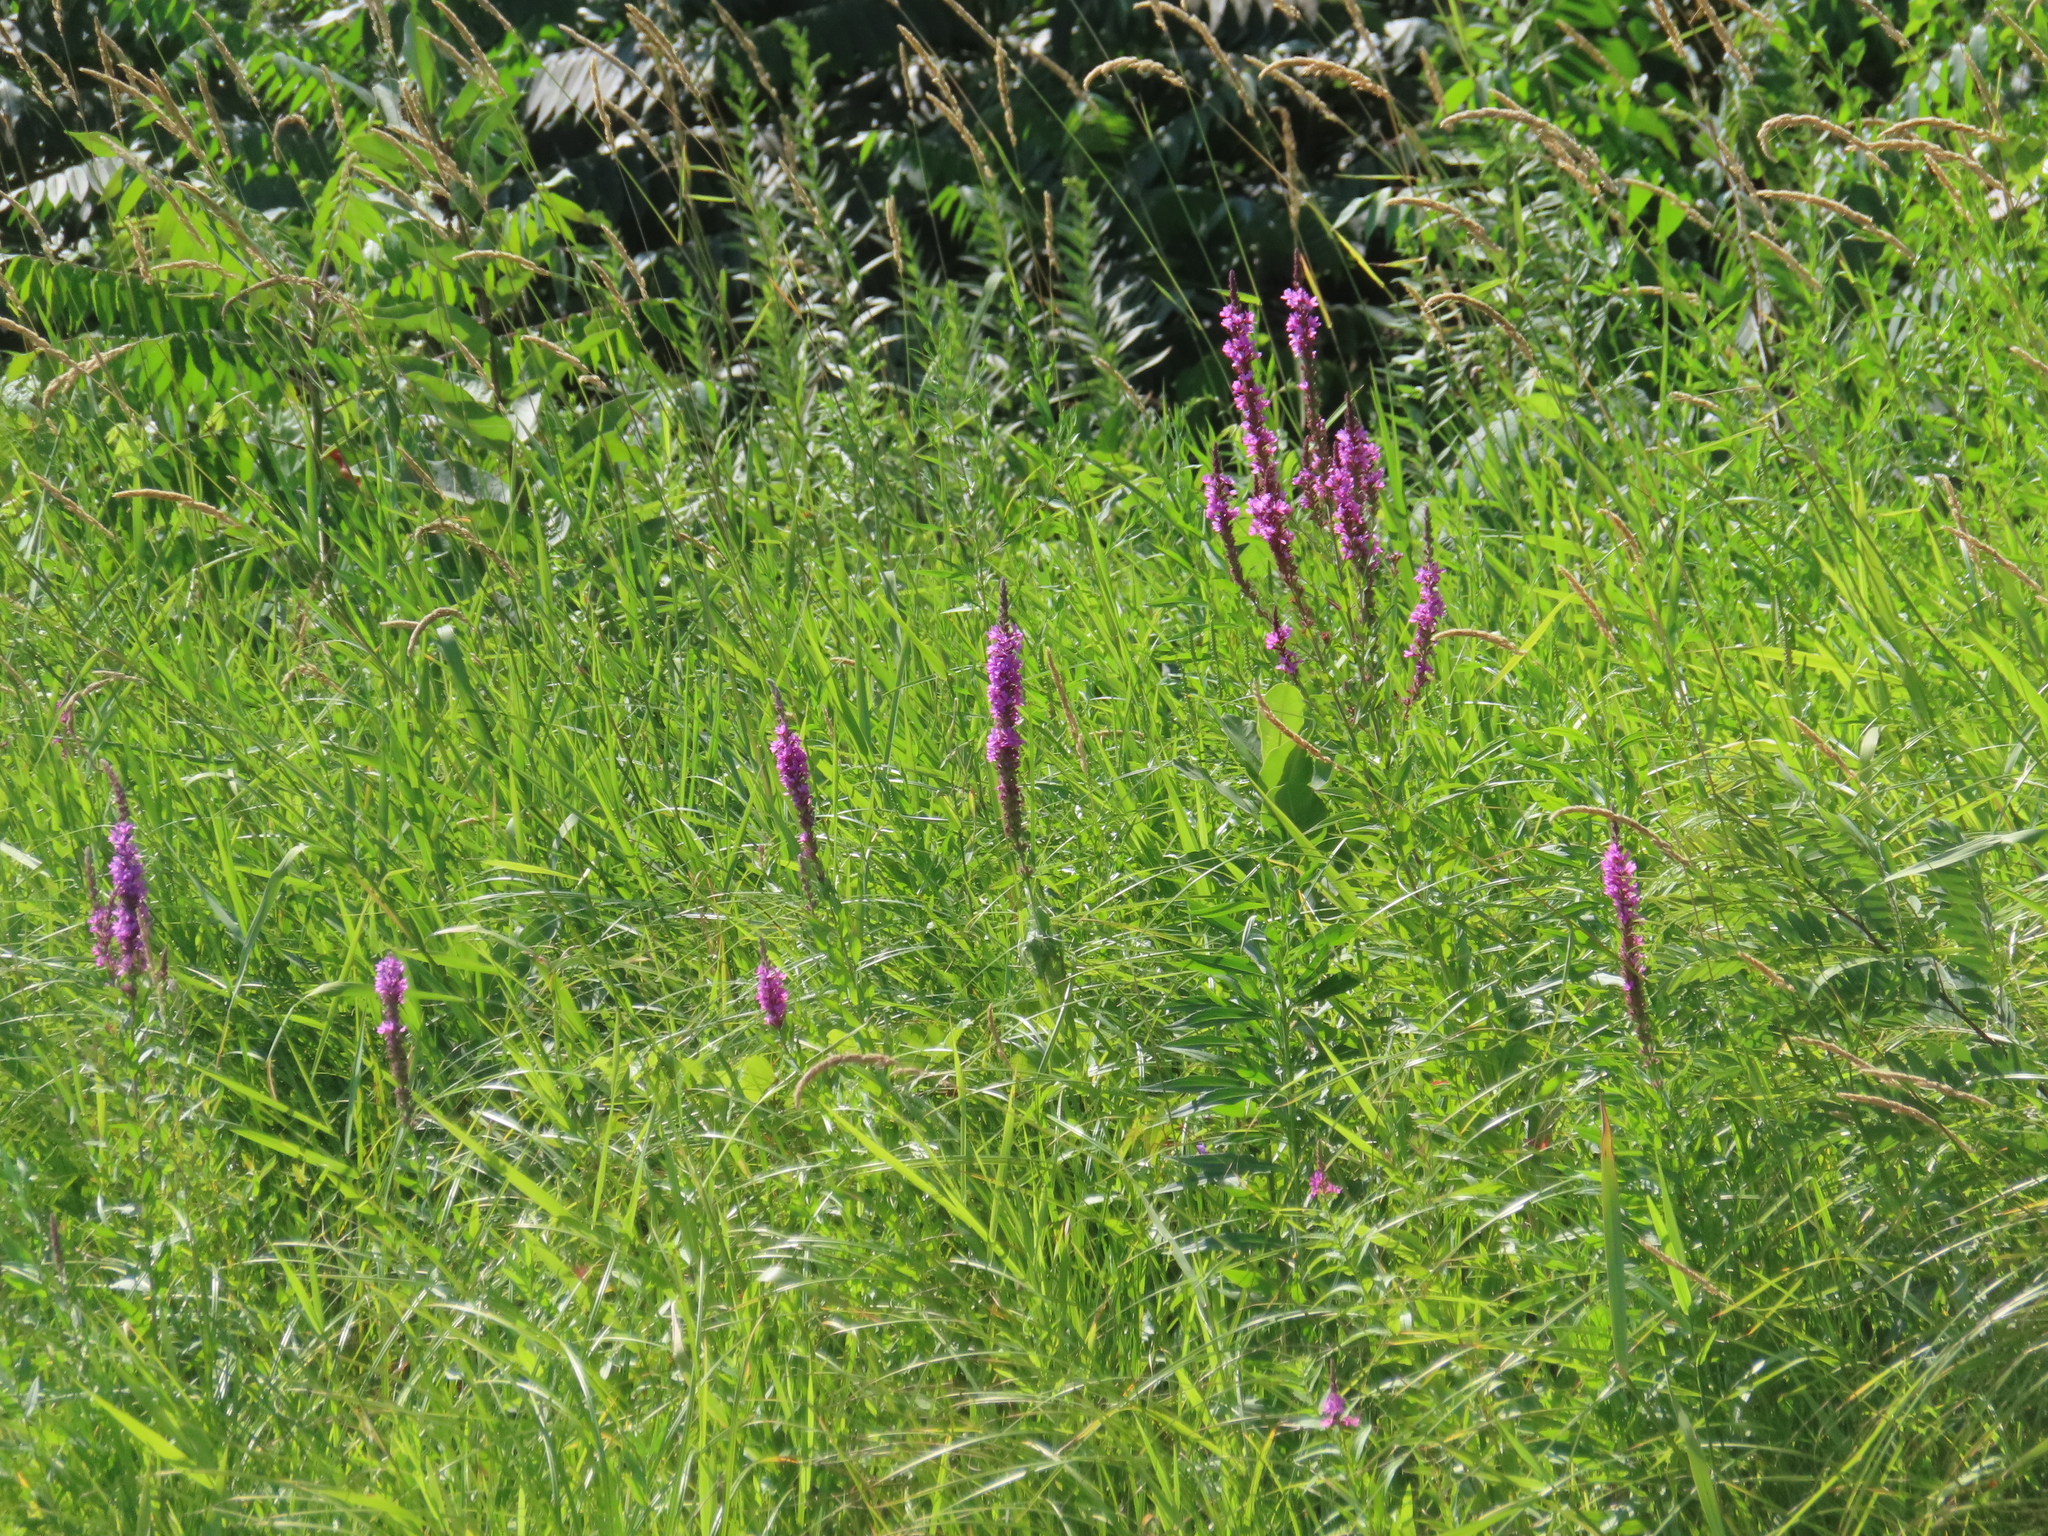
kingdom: Plantae
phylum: Tracheophyta
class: Magnoliopsida
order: Myrtales
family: Lythraceae
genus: Lythrum
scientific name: Lythrum salicaria
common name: Purple loosestrife
